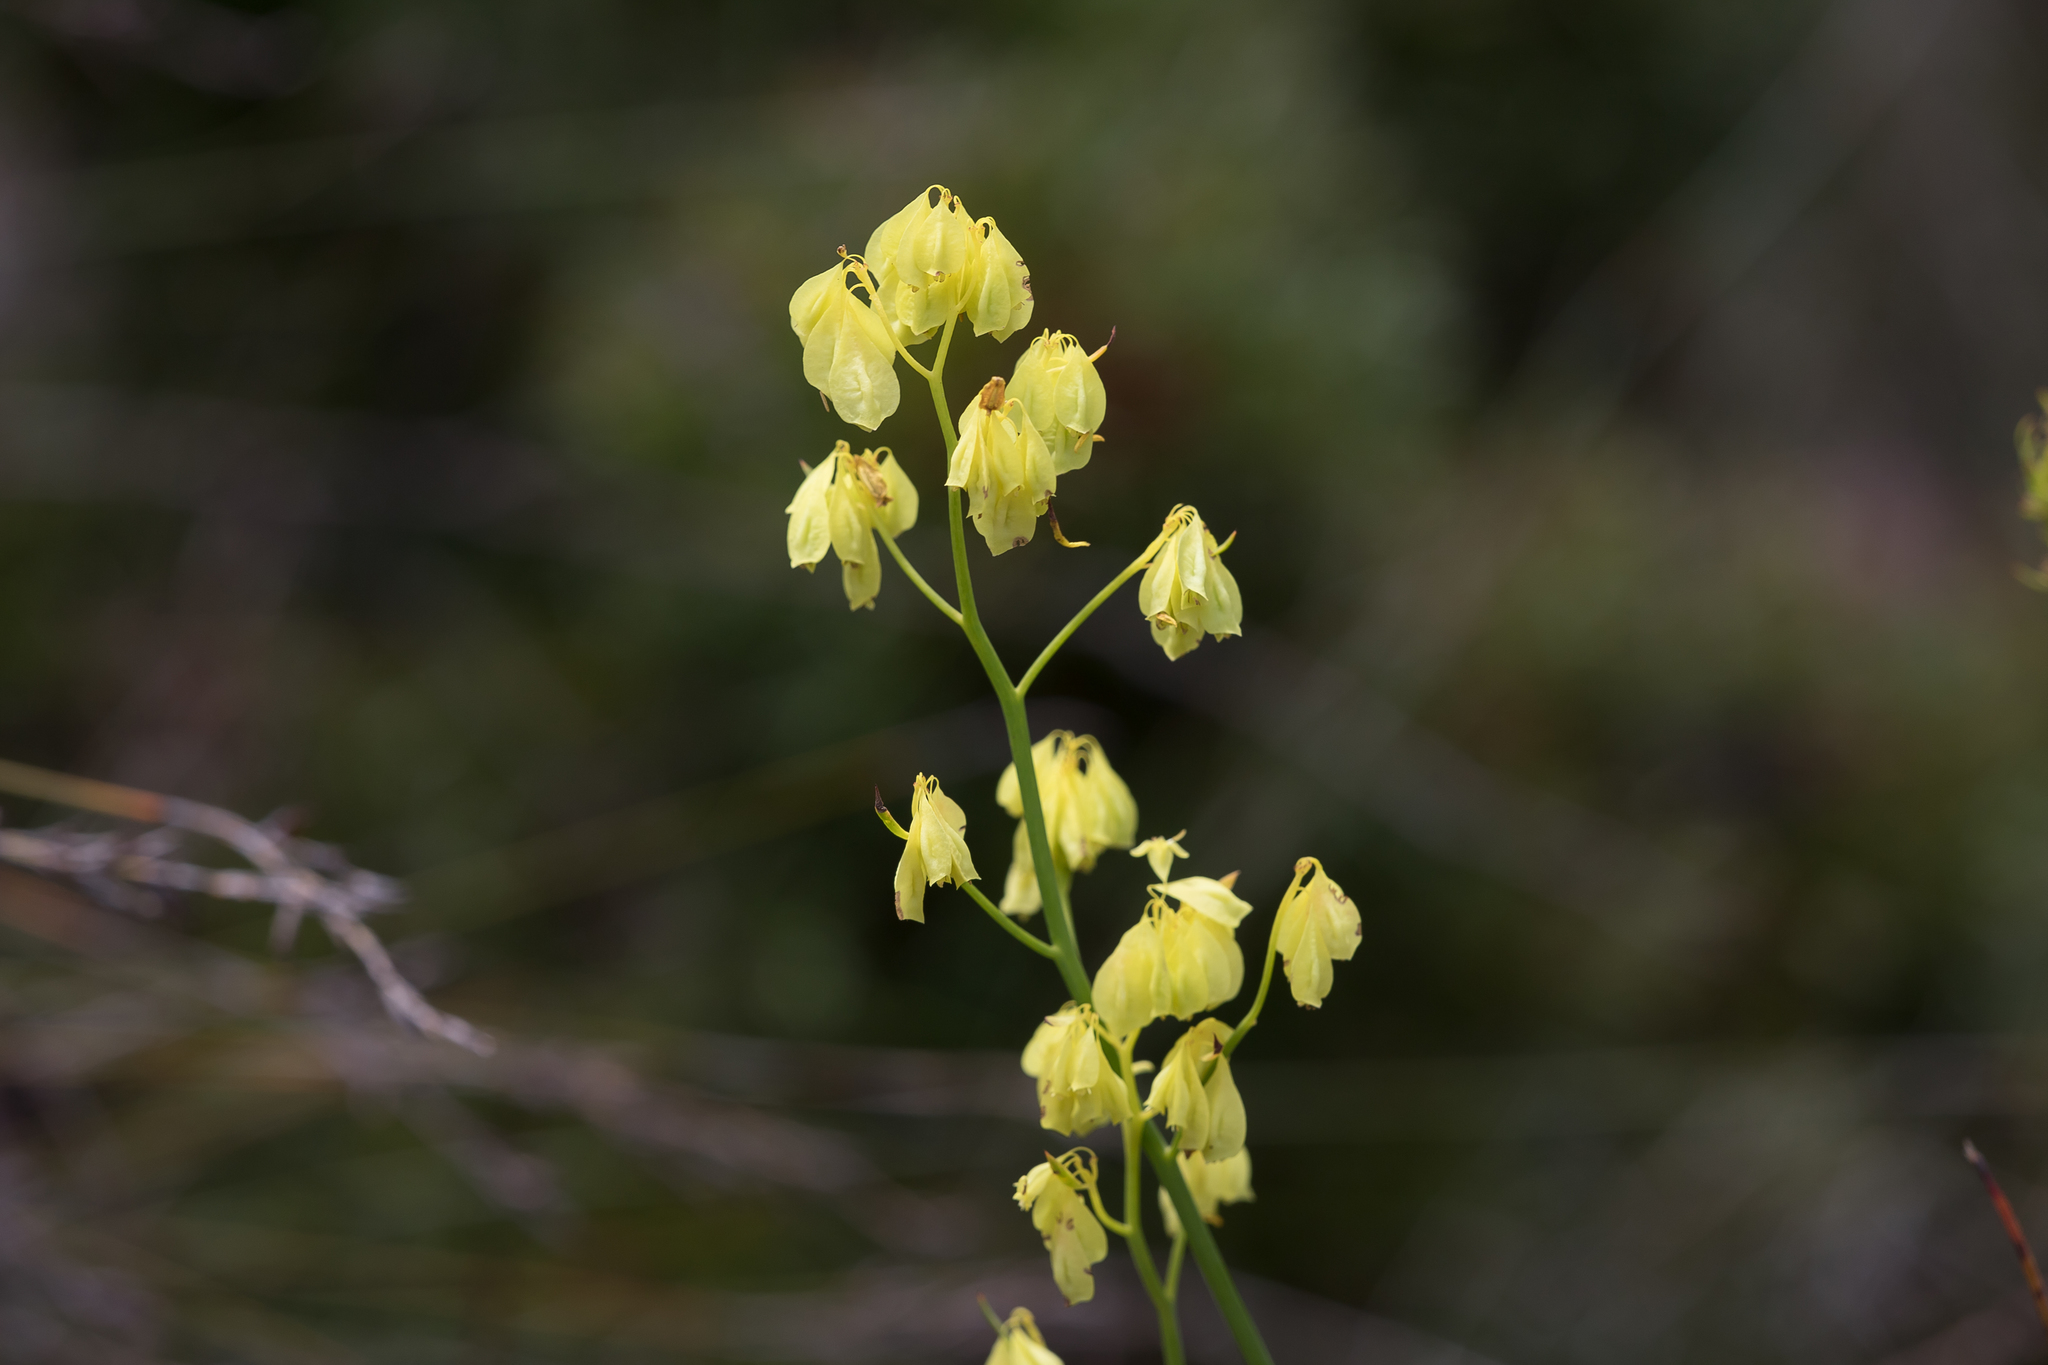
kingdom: Plantae
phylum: Tracheophyta
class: Magnoliopsida
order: Saxifragales
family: Haloragaceae
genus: Glischrocaryon
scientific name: Glischrocaryon behrii
